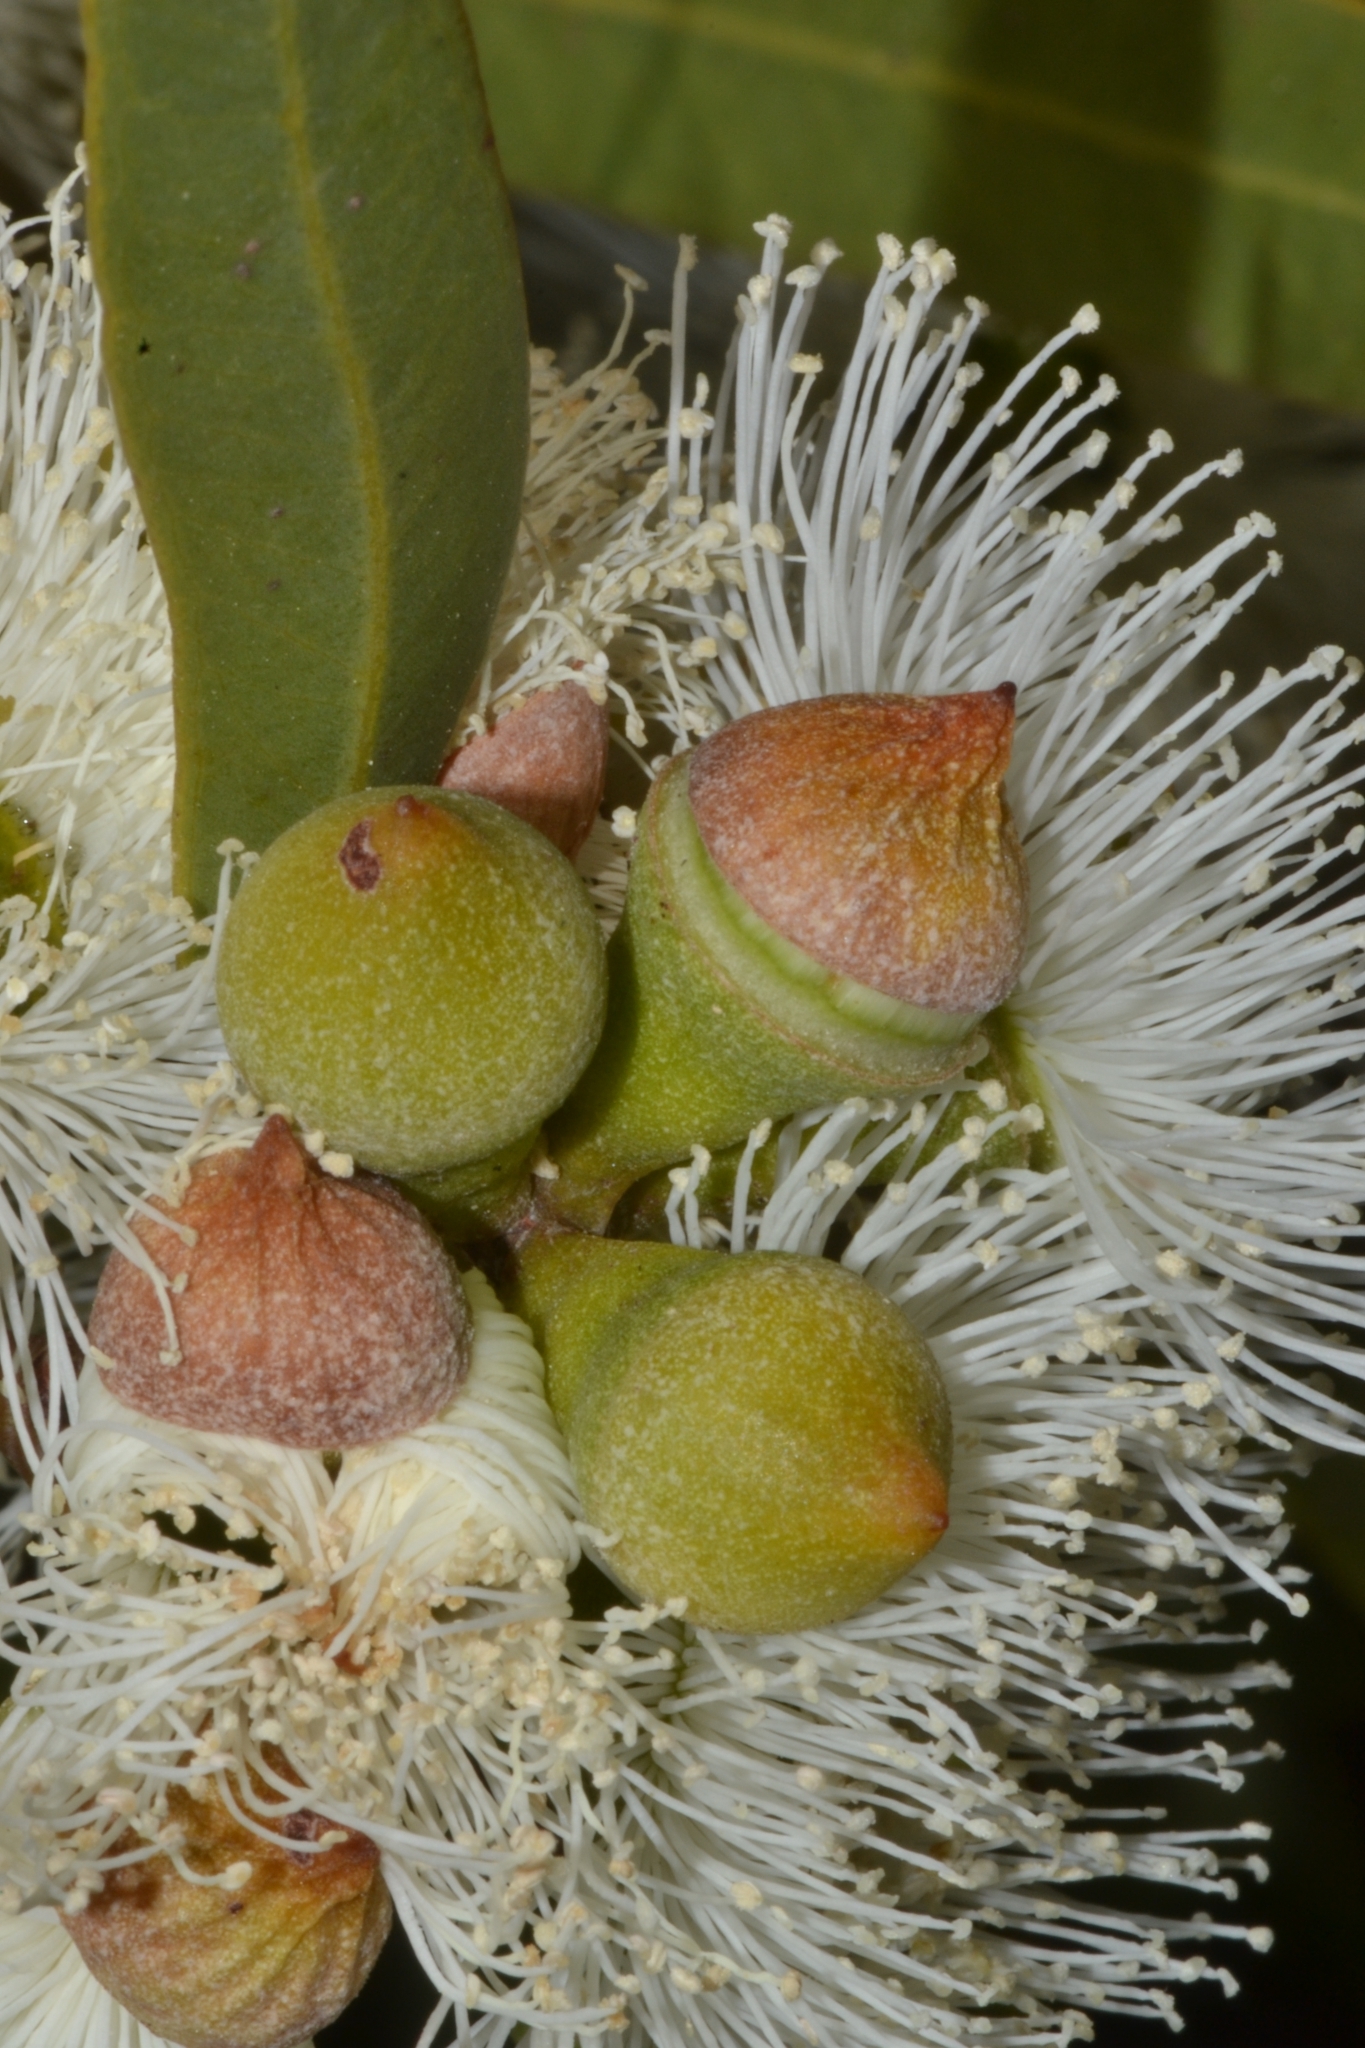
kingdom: Plantae
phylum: Tracheophyta
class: Magnoliopsida
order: Myrtales
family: Myrtaceae
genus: Eucalyptus
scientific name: Eucalyptus todtiana
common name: Coastal blackbutt
